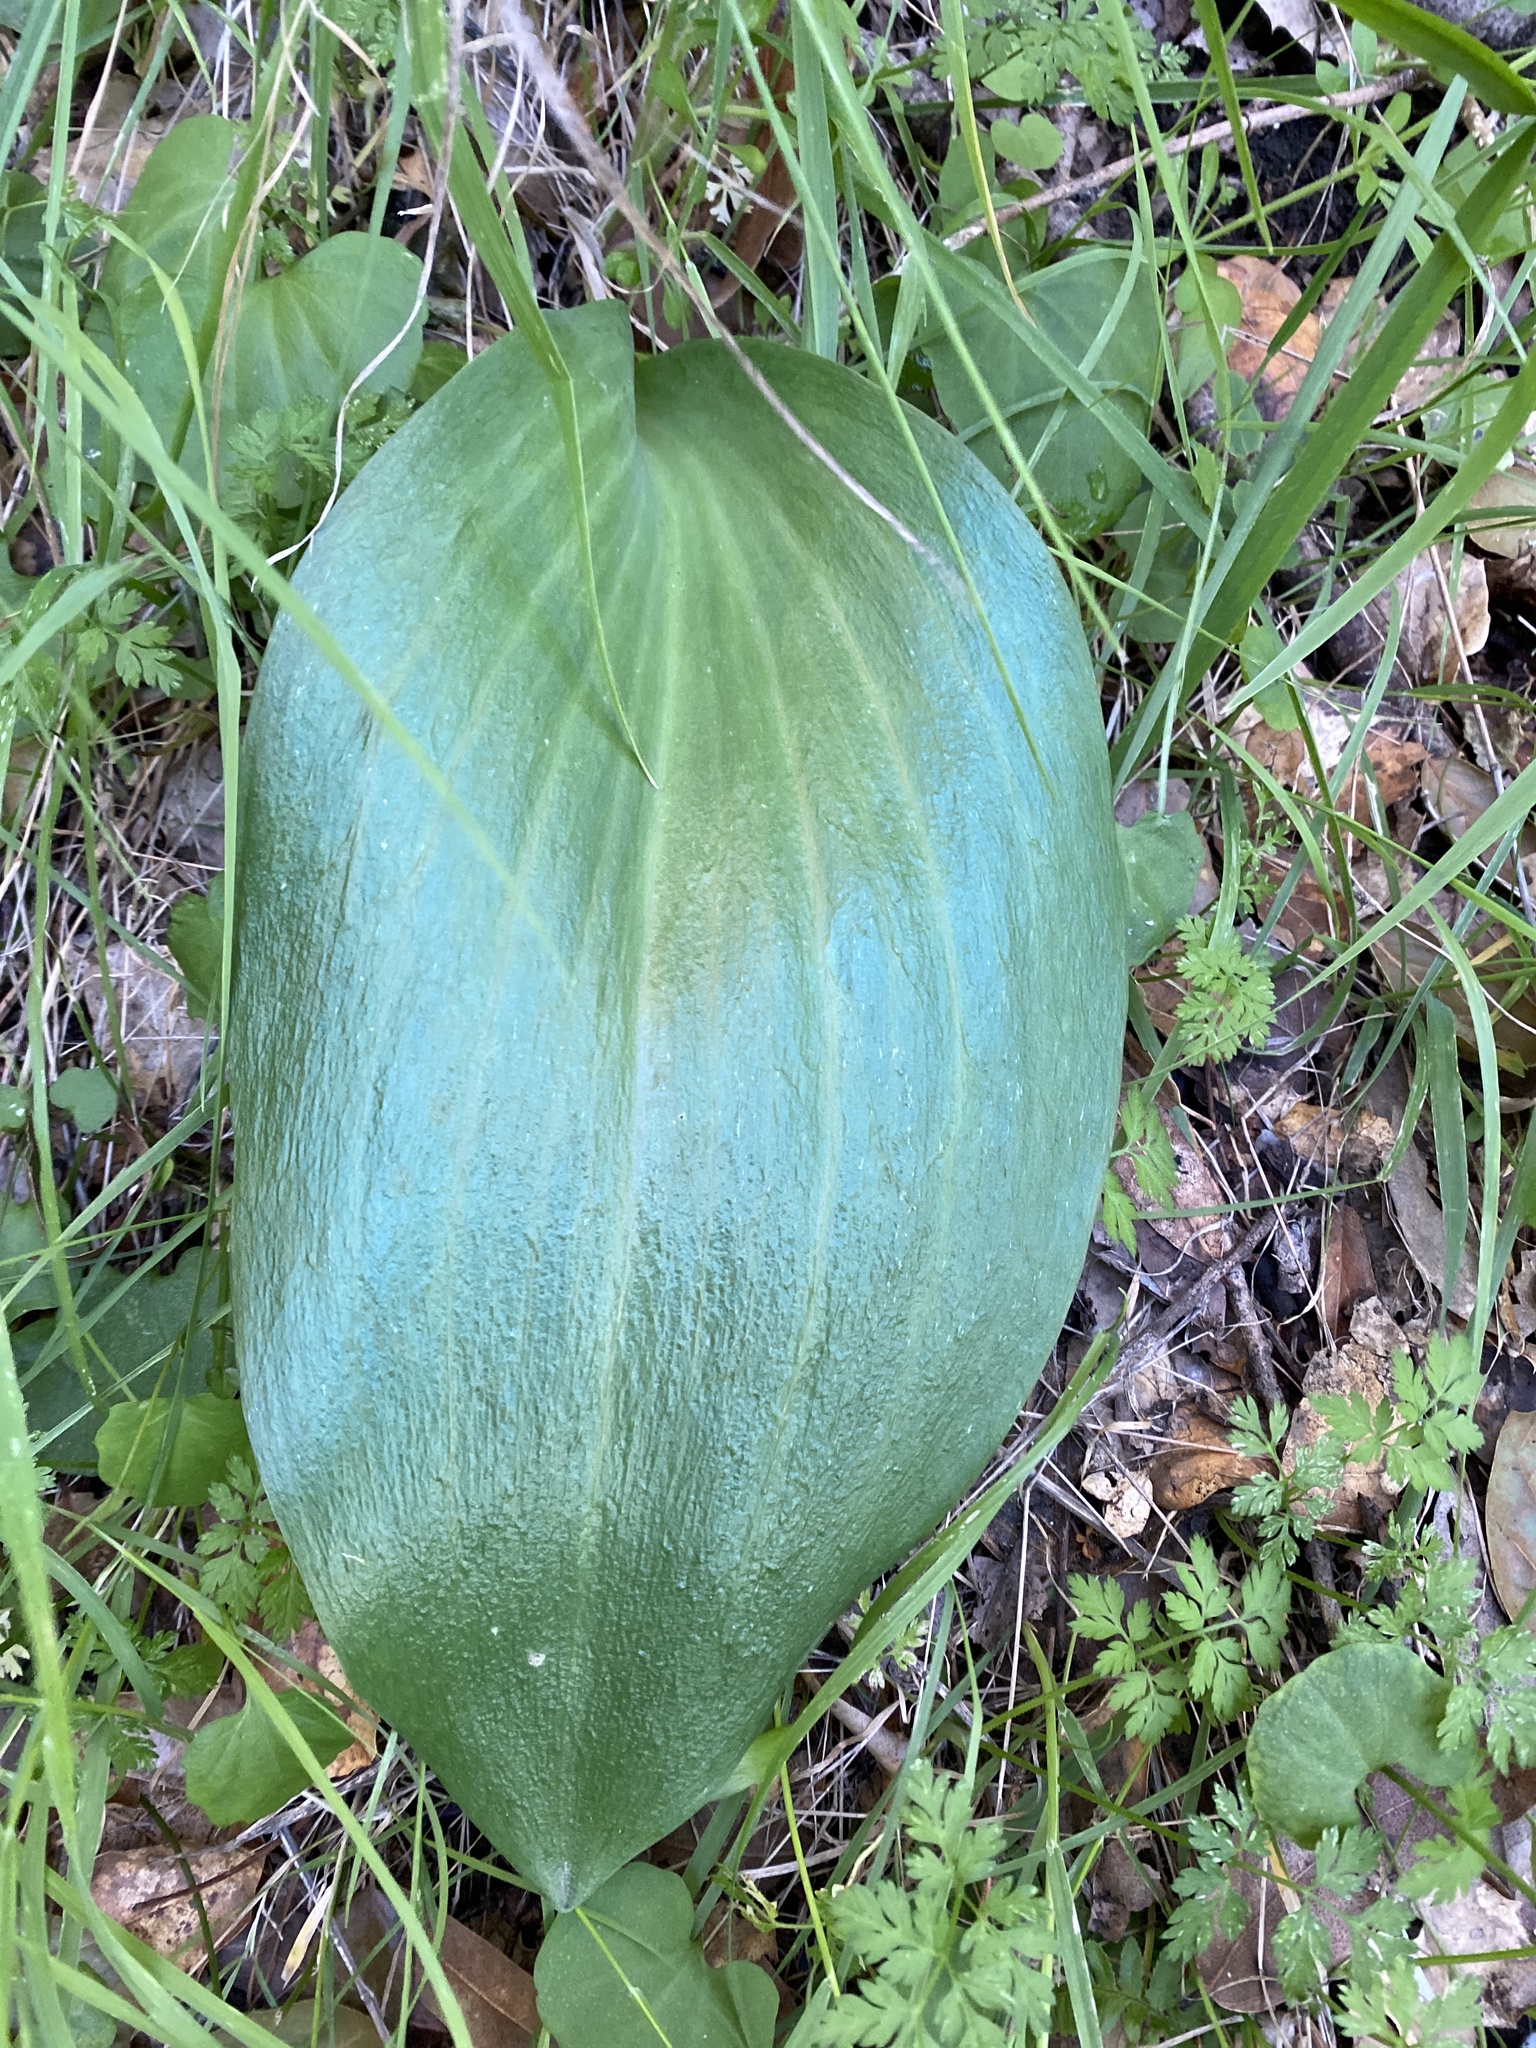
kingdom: Plantae
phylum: Tracheophyta
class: Liliopsida
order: Liliales
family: Liliaceae
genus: Fritillaria
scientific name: Fritillaria affinis
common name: Ojai fritillary
